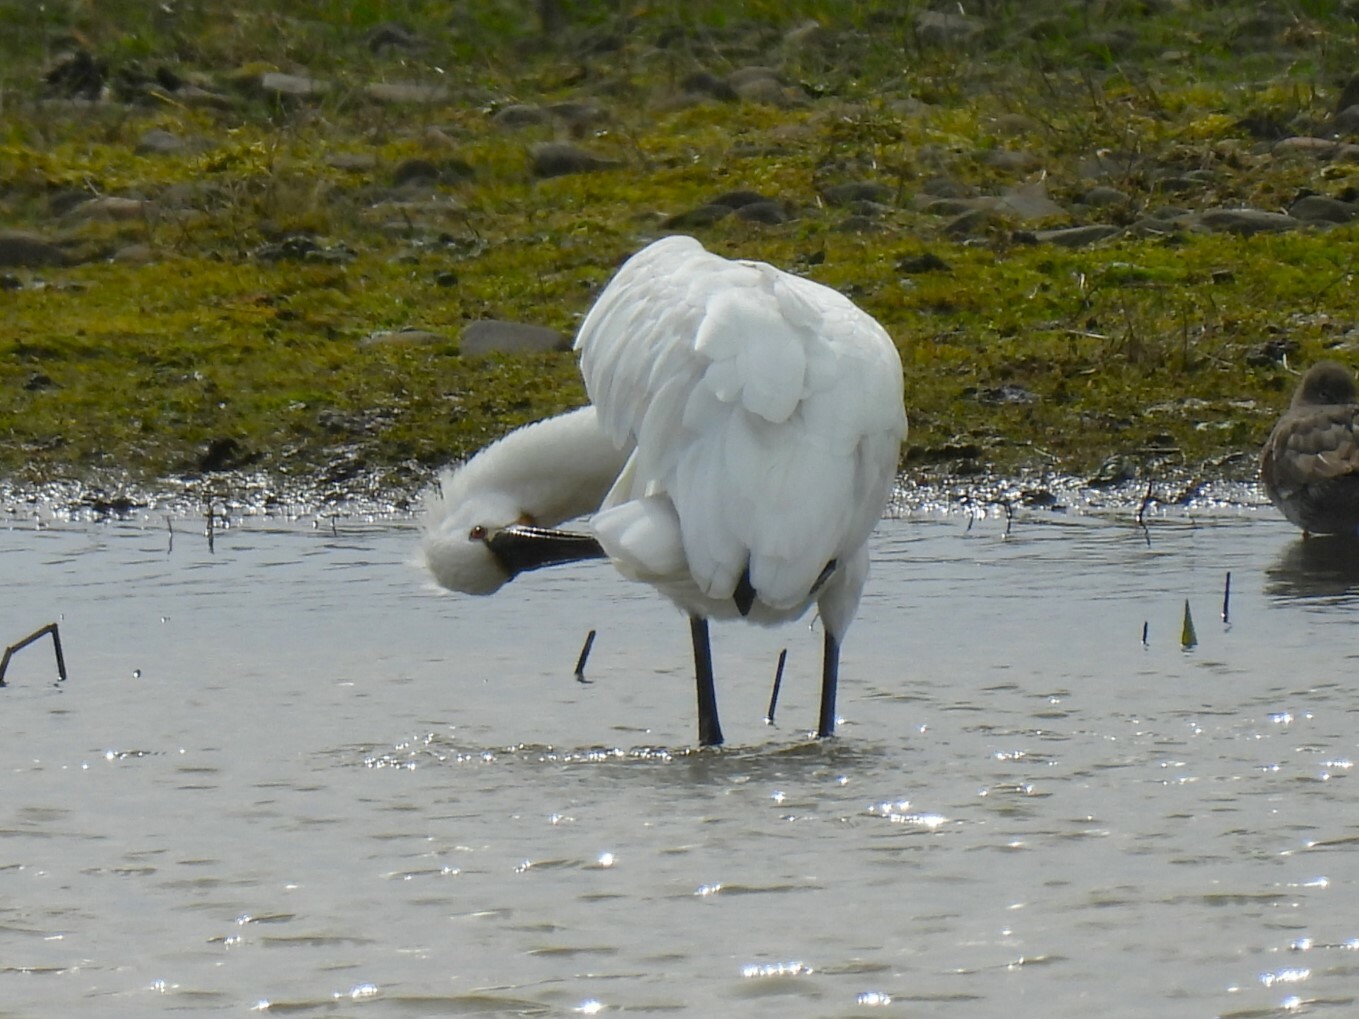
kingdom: Animalia
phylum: Chordata
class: Aves
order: Pelecaniformes
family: Threskiornithidae
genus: Platalea
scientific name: Platalea leucorodia
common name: Eurasian spoonbill
